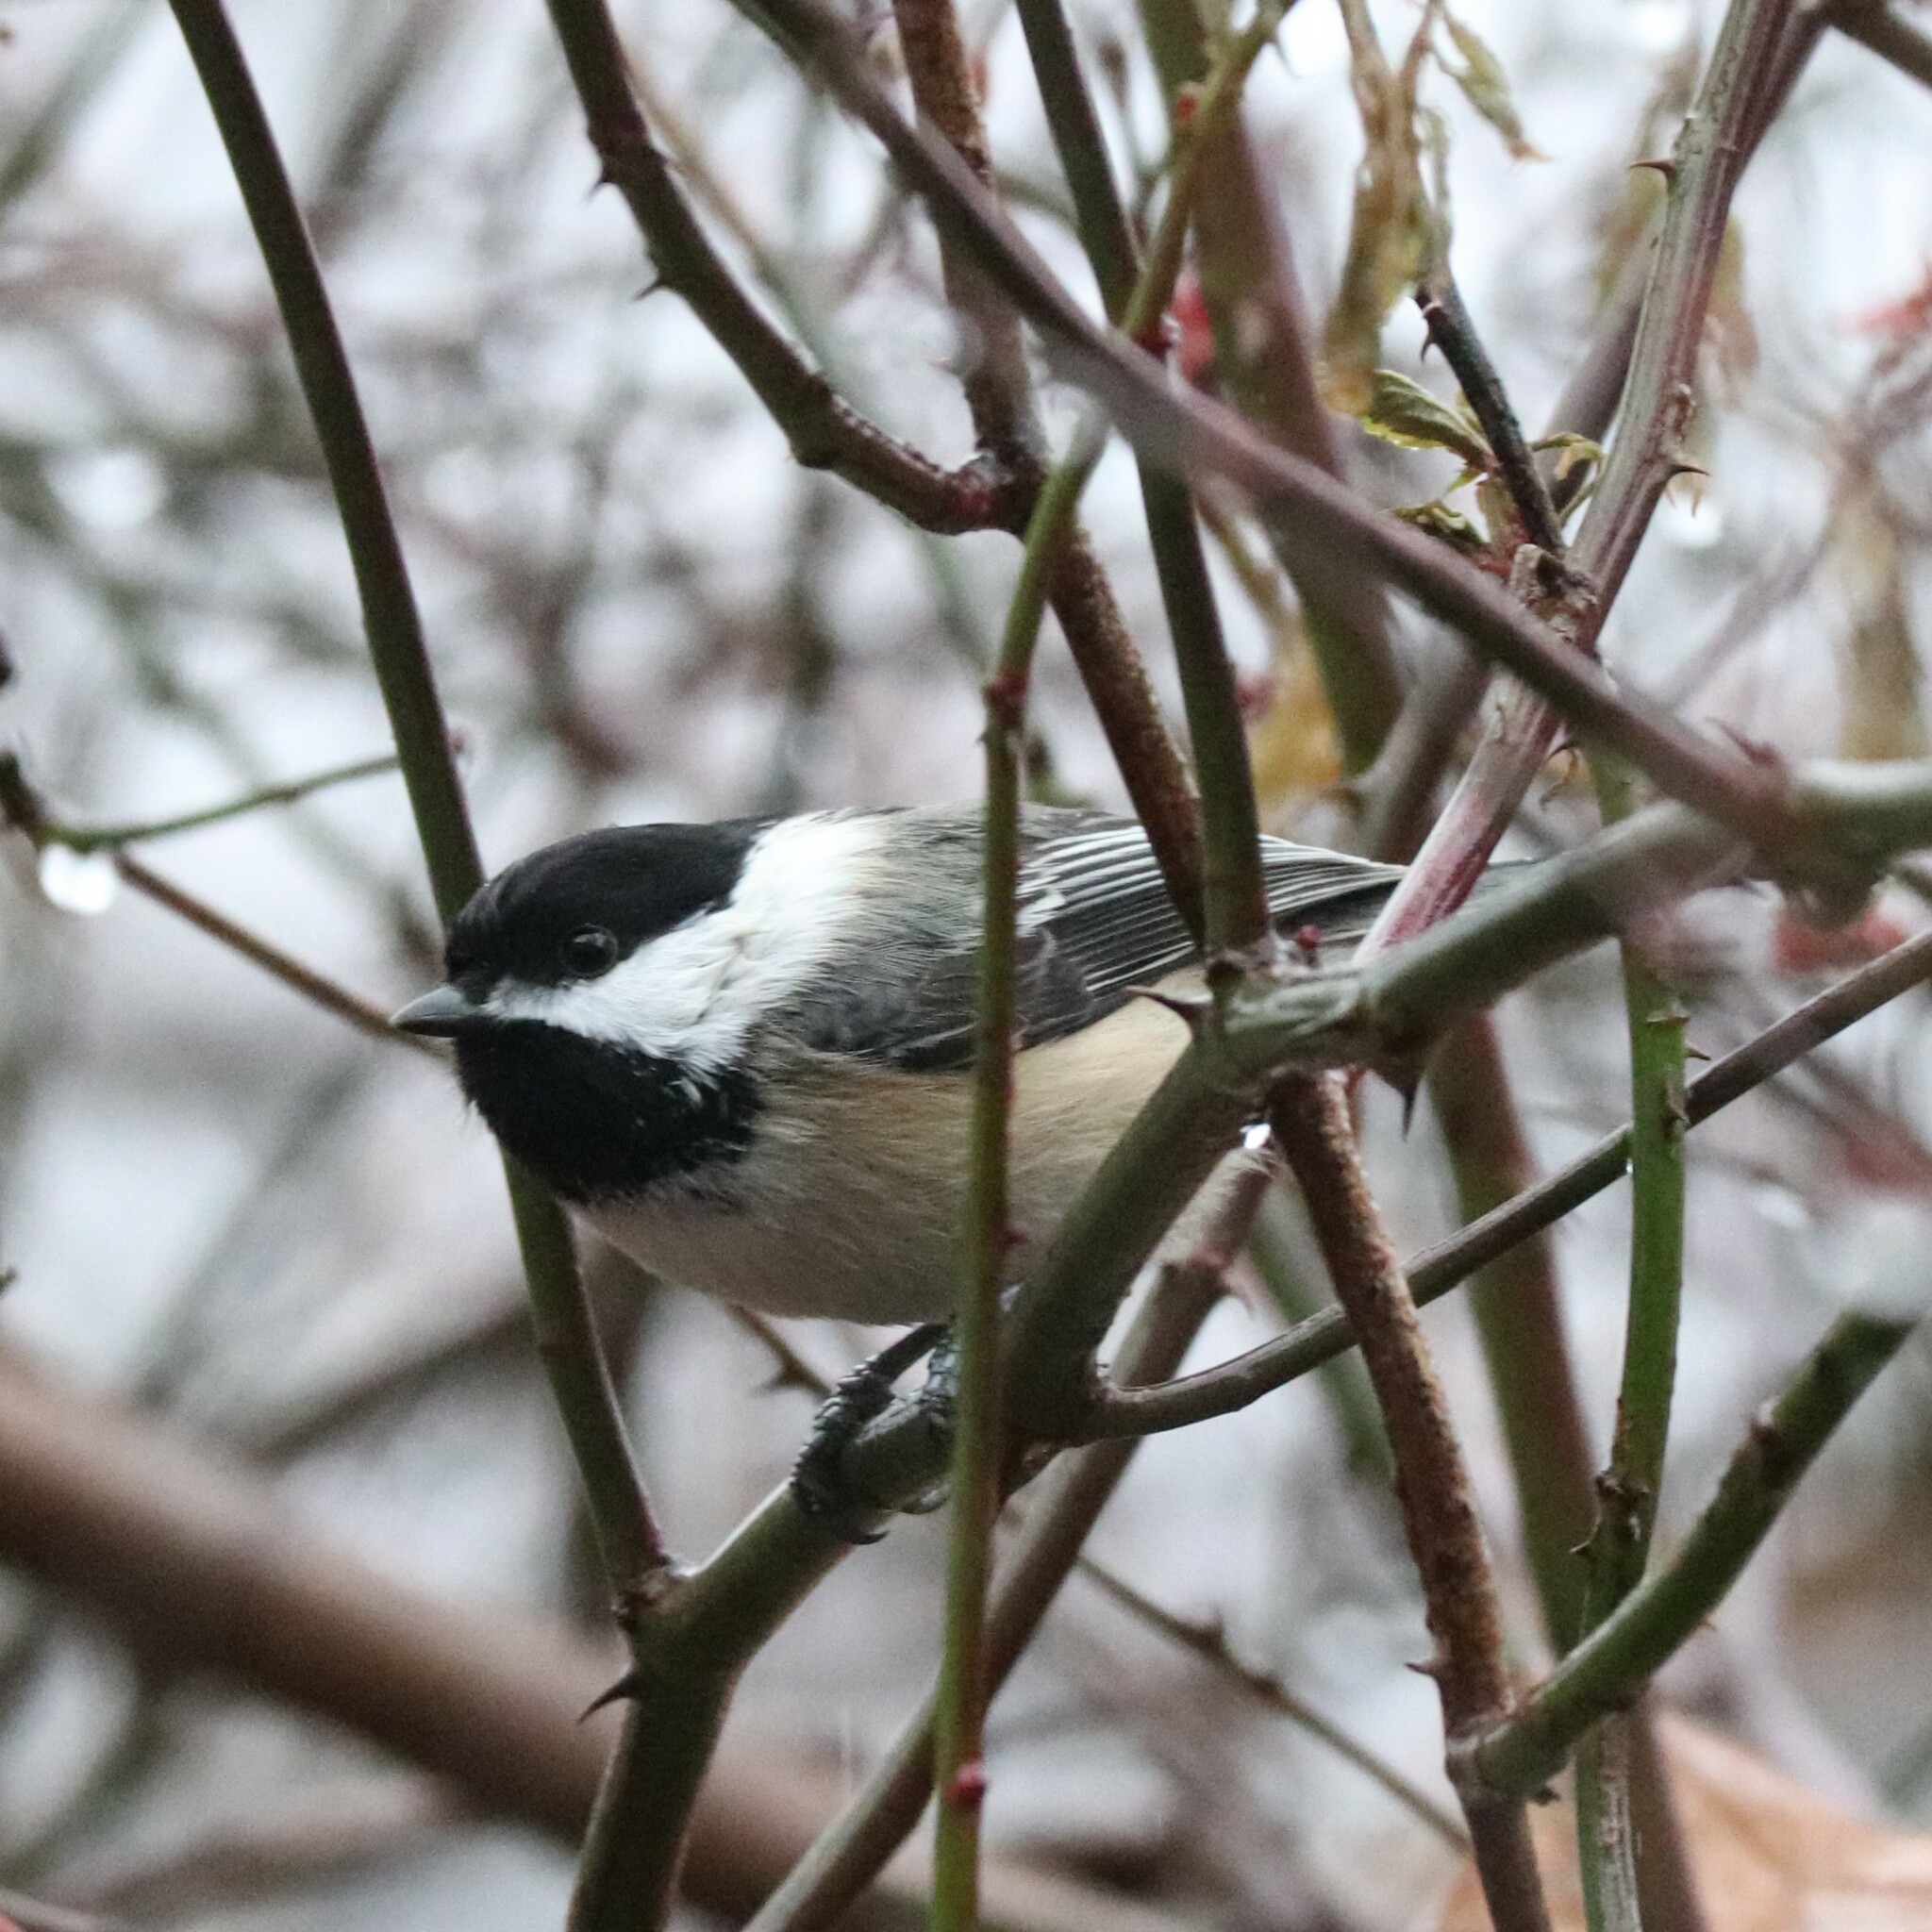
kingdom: Animalia
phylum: Chordata
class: Aves
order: Passeriformes
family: Paridae
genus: Poecile
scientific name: Poecile atricapillus
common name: Black-capped chickadee
